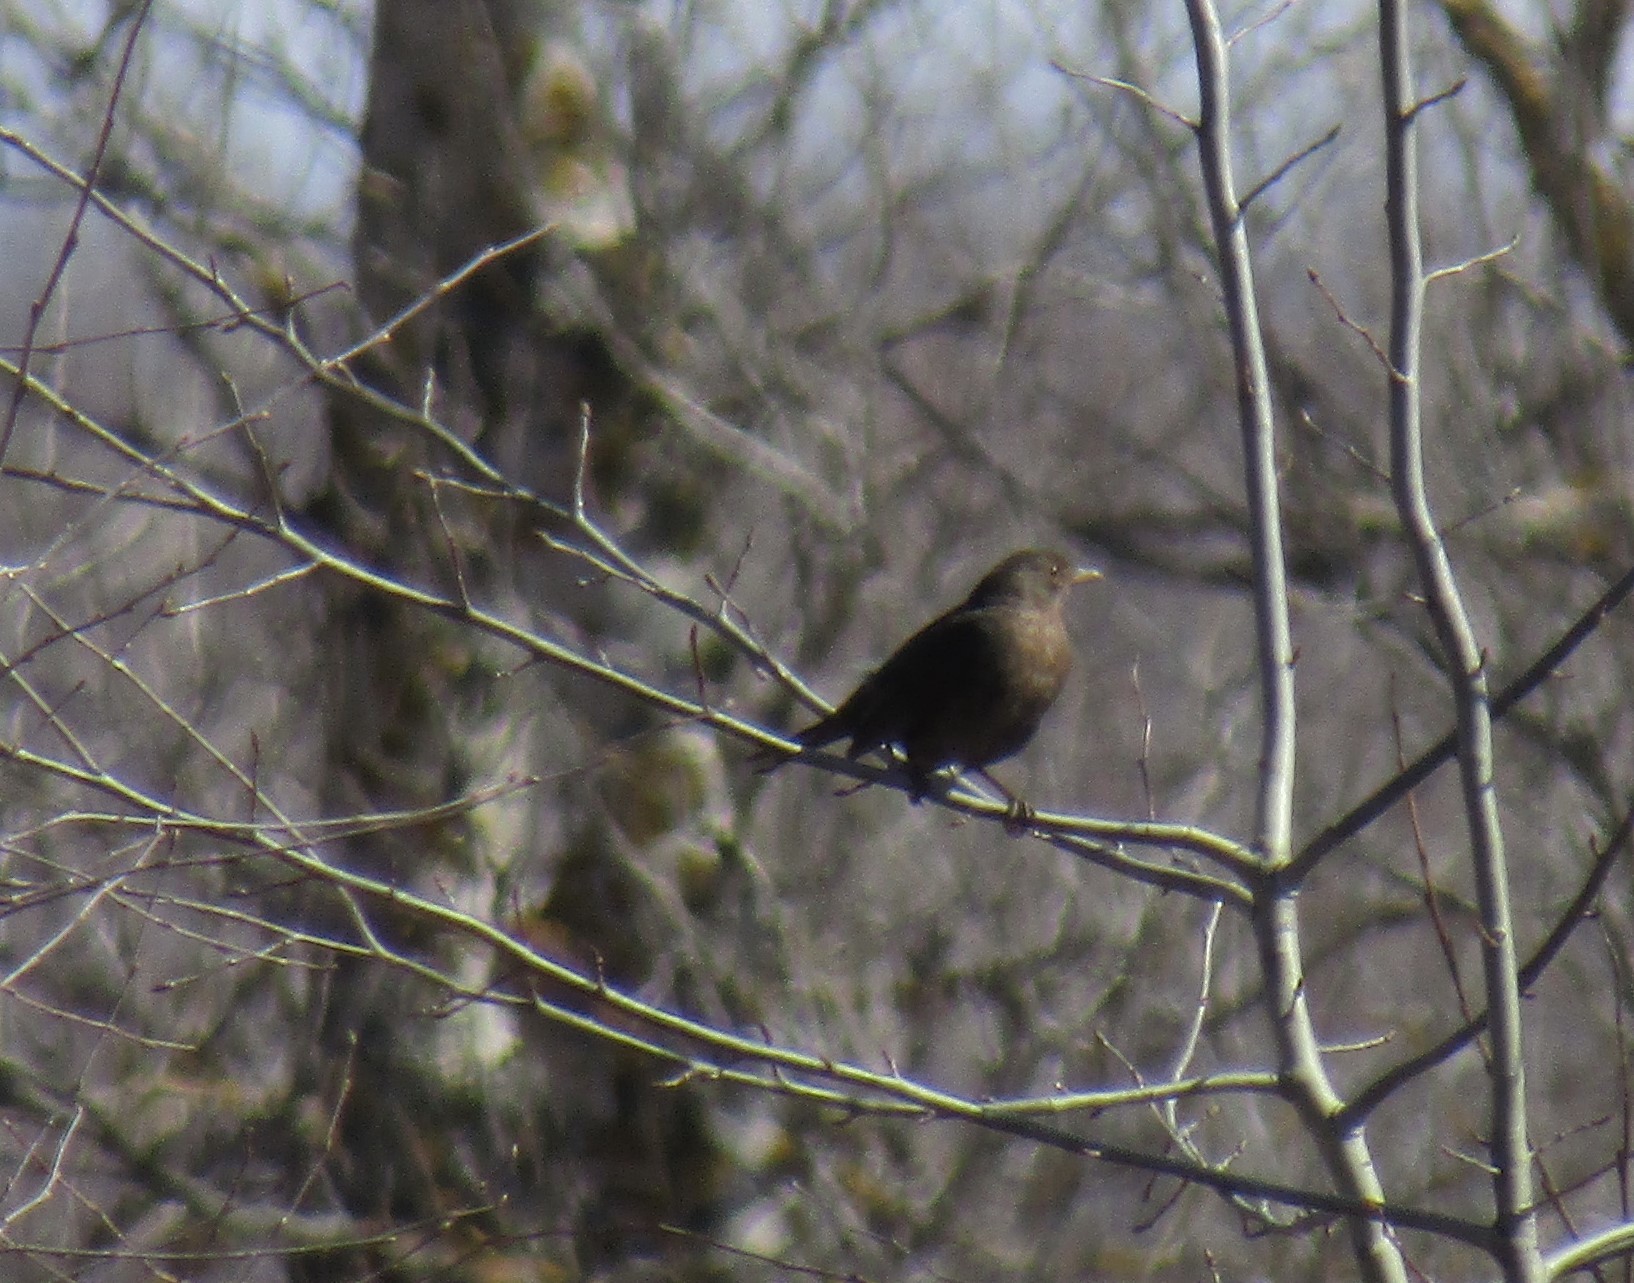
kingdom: Animalia
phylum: Chordata
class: Aves
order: Passeriformes
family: Turdidae
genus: Turdus
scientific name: Turdus merula
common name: Common blackbird
